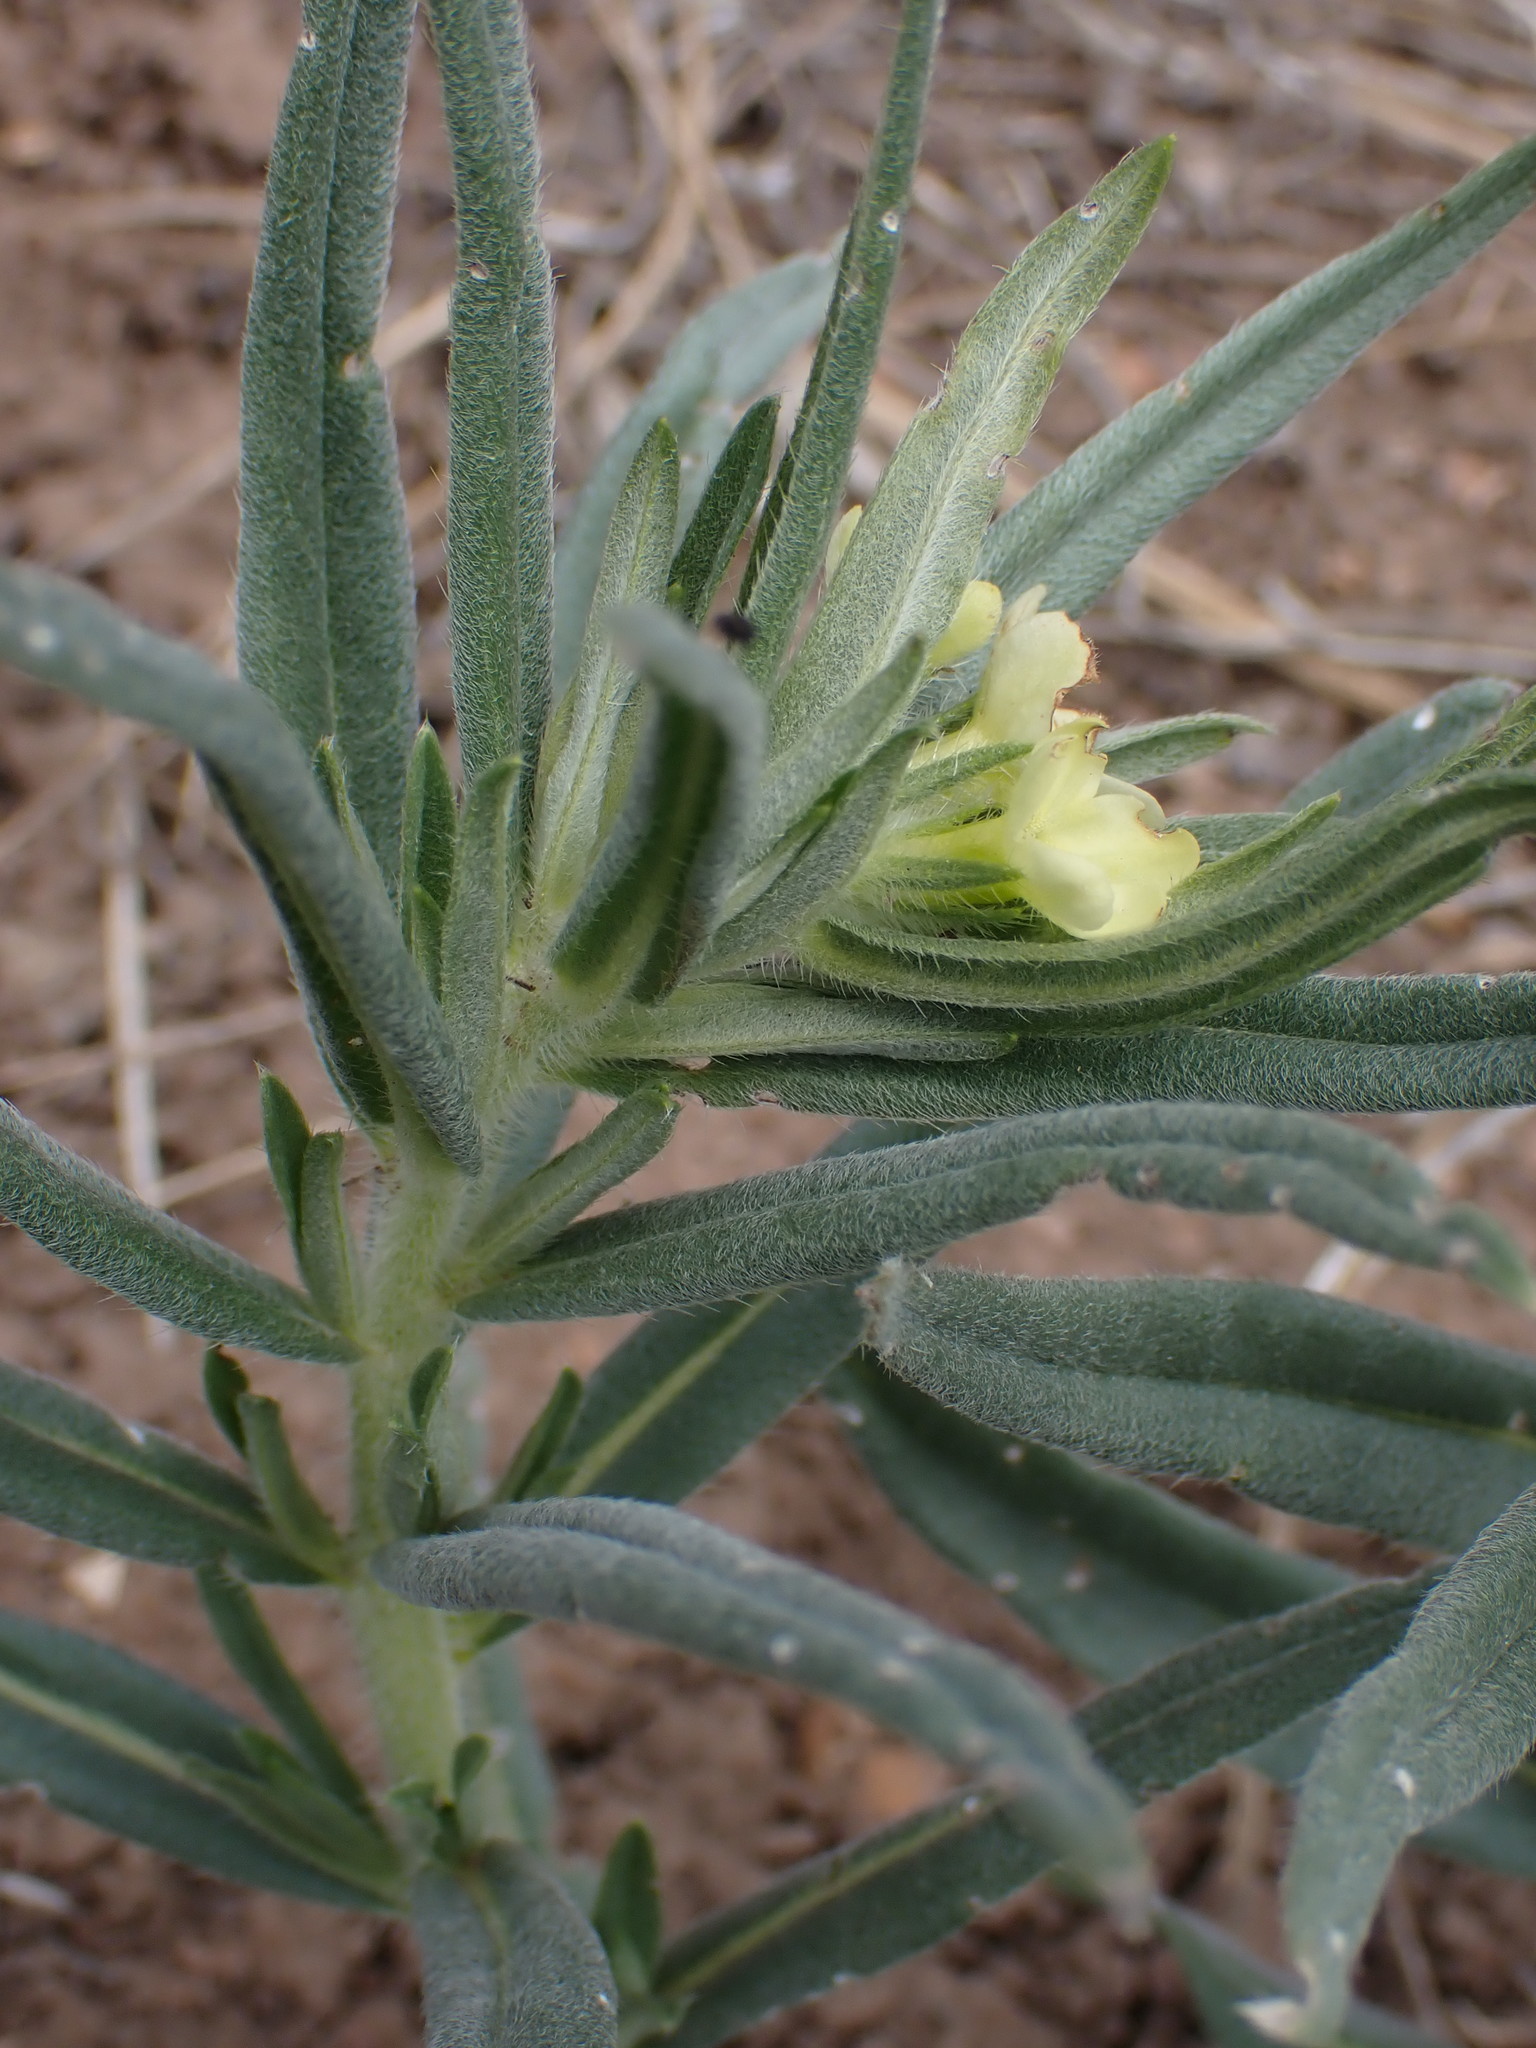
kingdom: Plantae
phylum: Tracheophyta
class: Magnoliopsida
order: Boraginales
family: Boraginaceae
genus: Lithospermum
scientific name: Lithospermum ruderale
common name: Western gromwell
